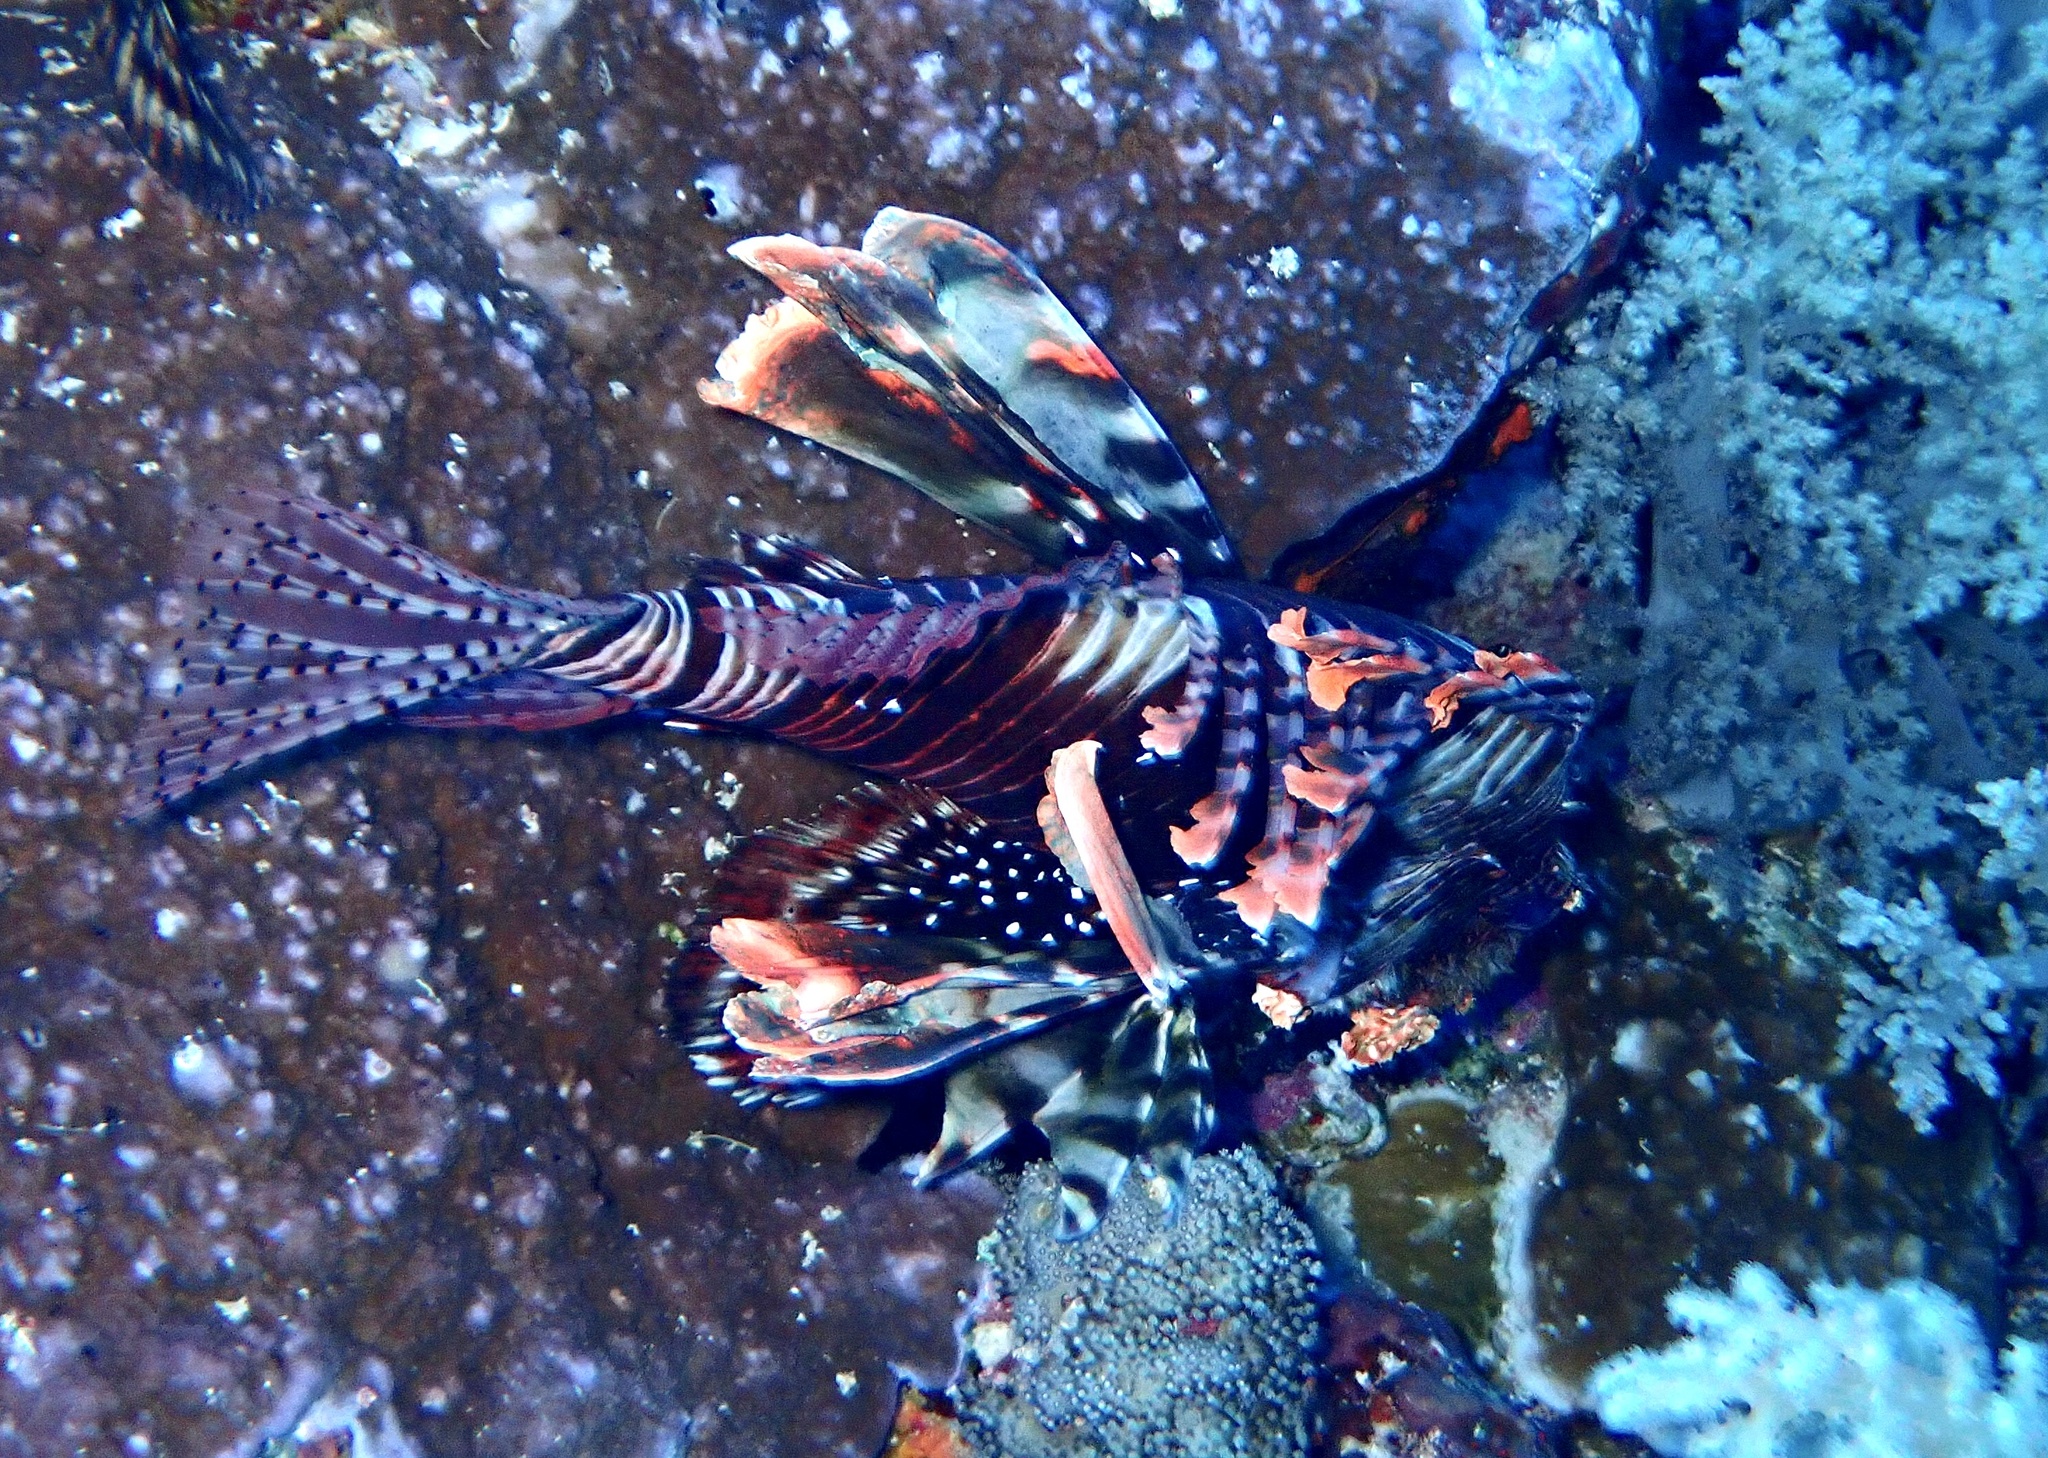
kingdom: Animalia
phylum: Chordata
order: Scorpaeniformes
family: Scorpaenidae
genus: Pterois
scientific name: Pterois miles
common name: Devil firefish
